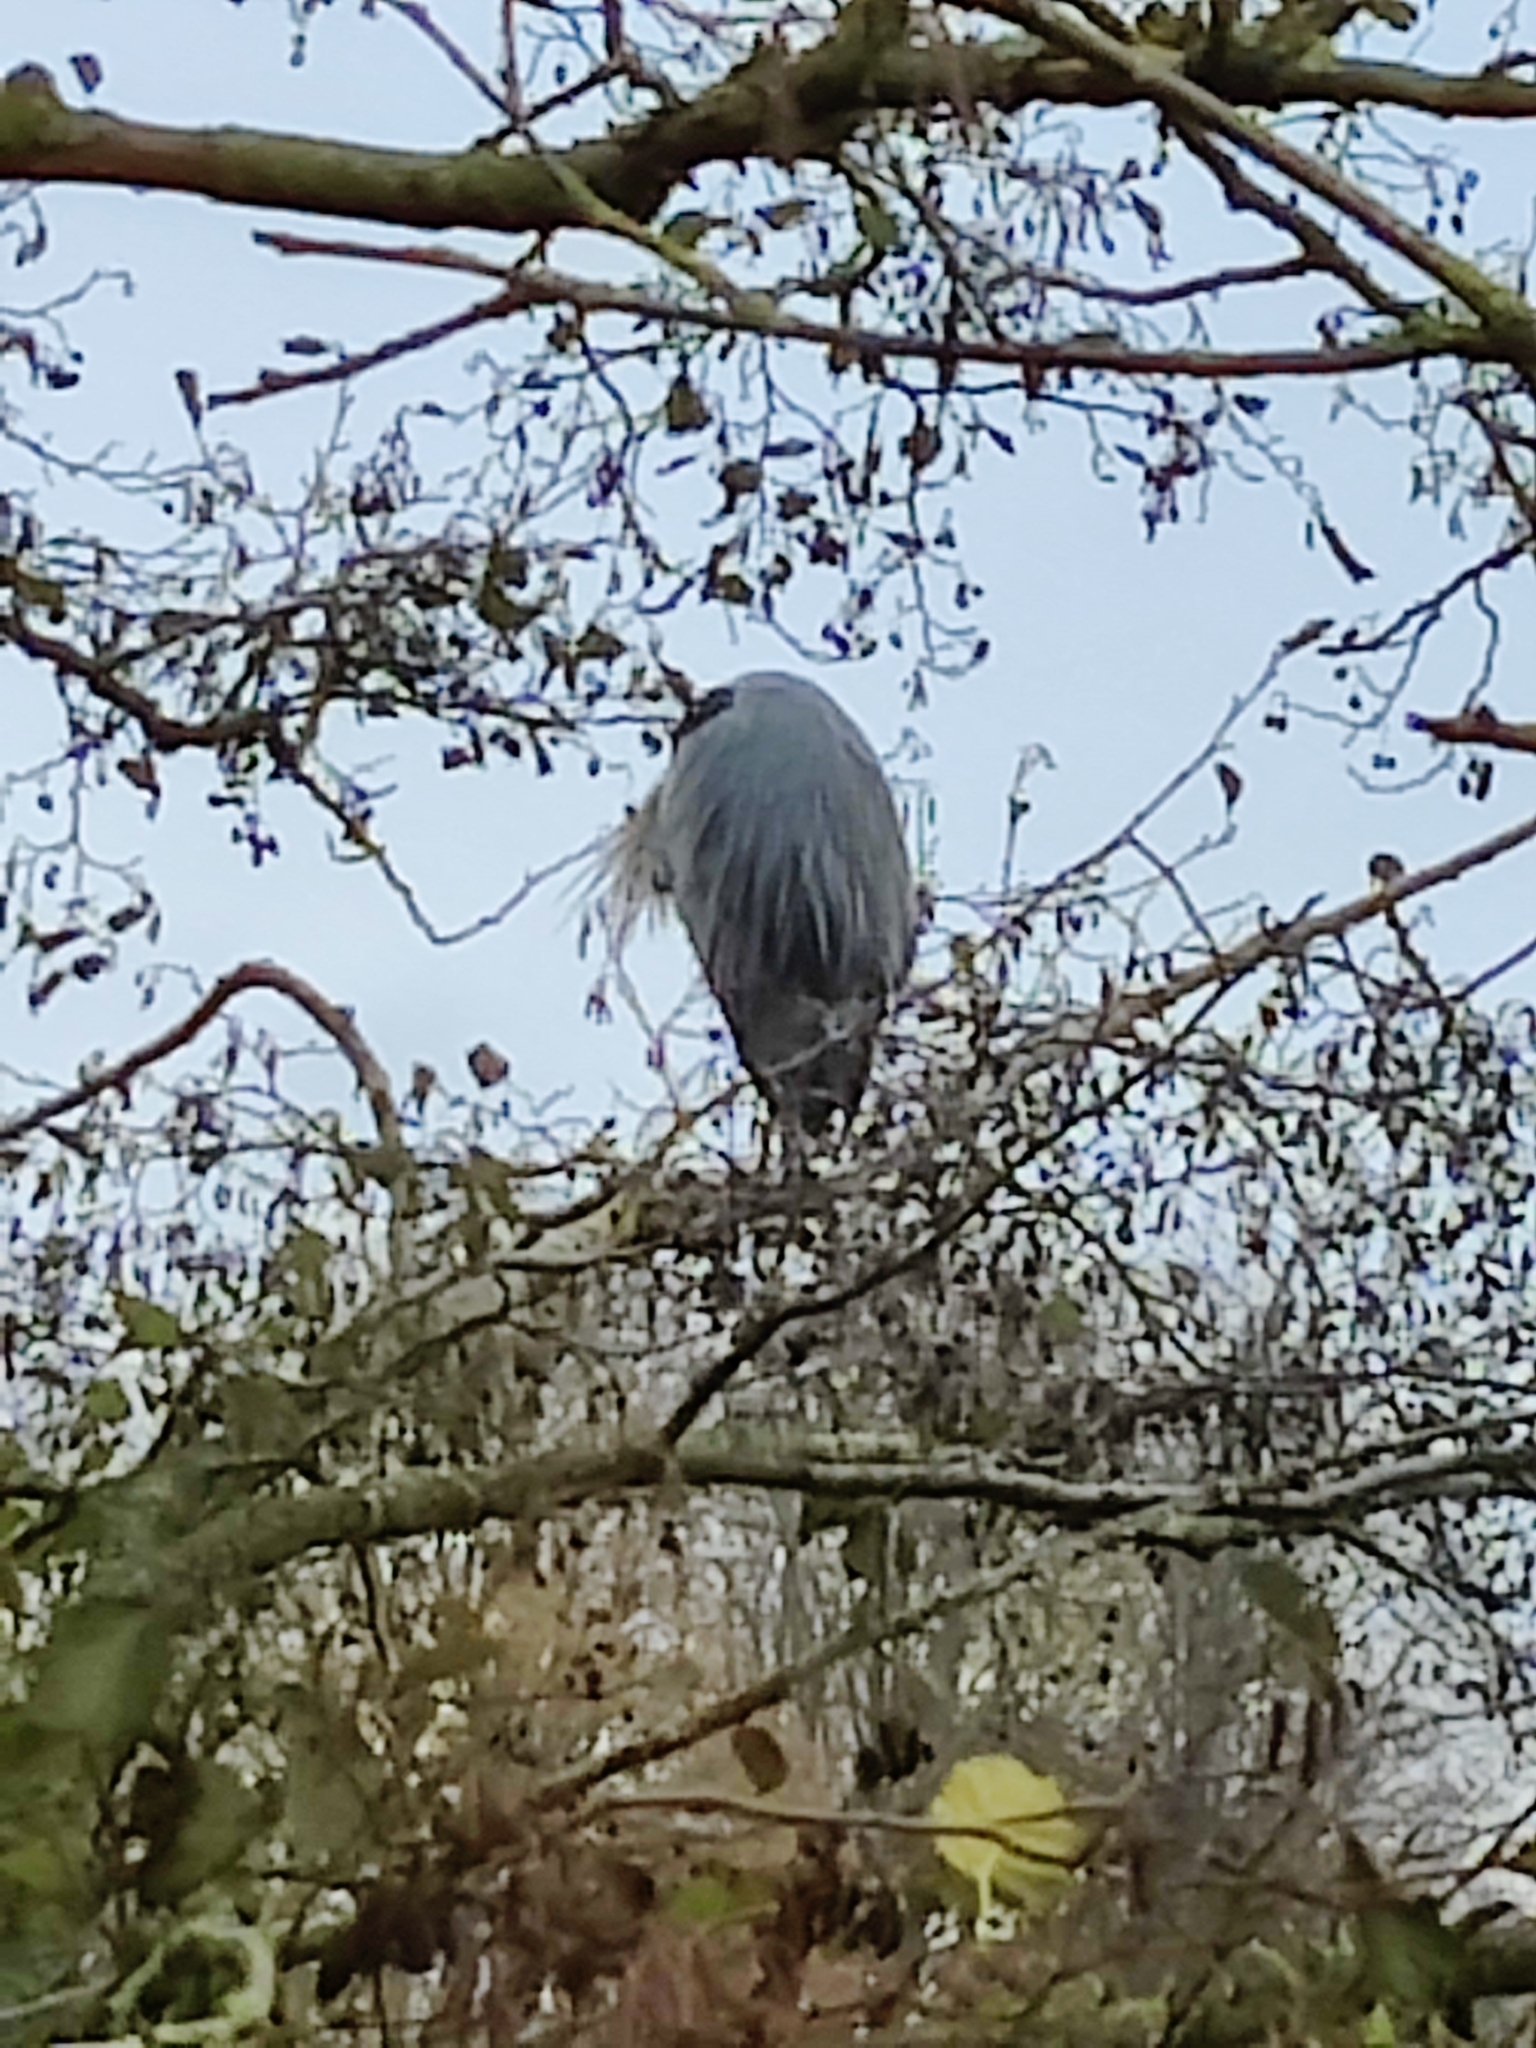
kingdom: Animalia
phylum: Chordata
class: Aves
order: Pelecaniformes
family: Ardeidae
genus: Ardea
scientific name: Ardea cinerea
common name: Grey heron
